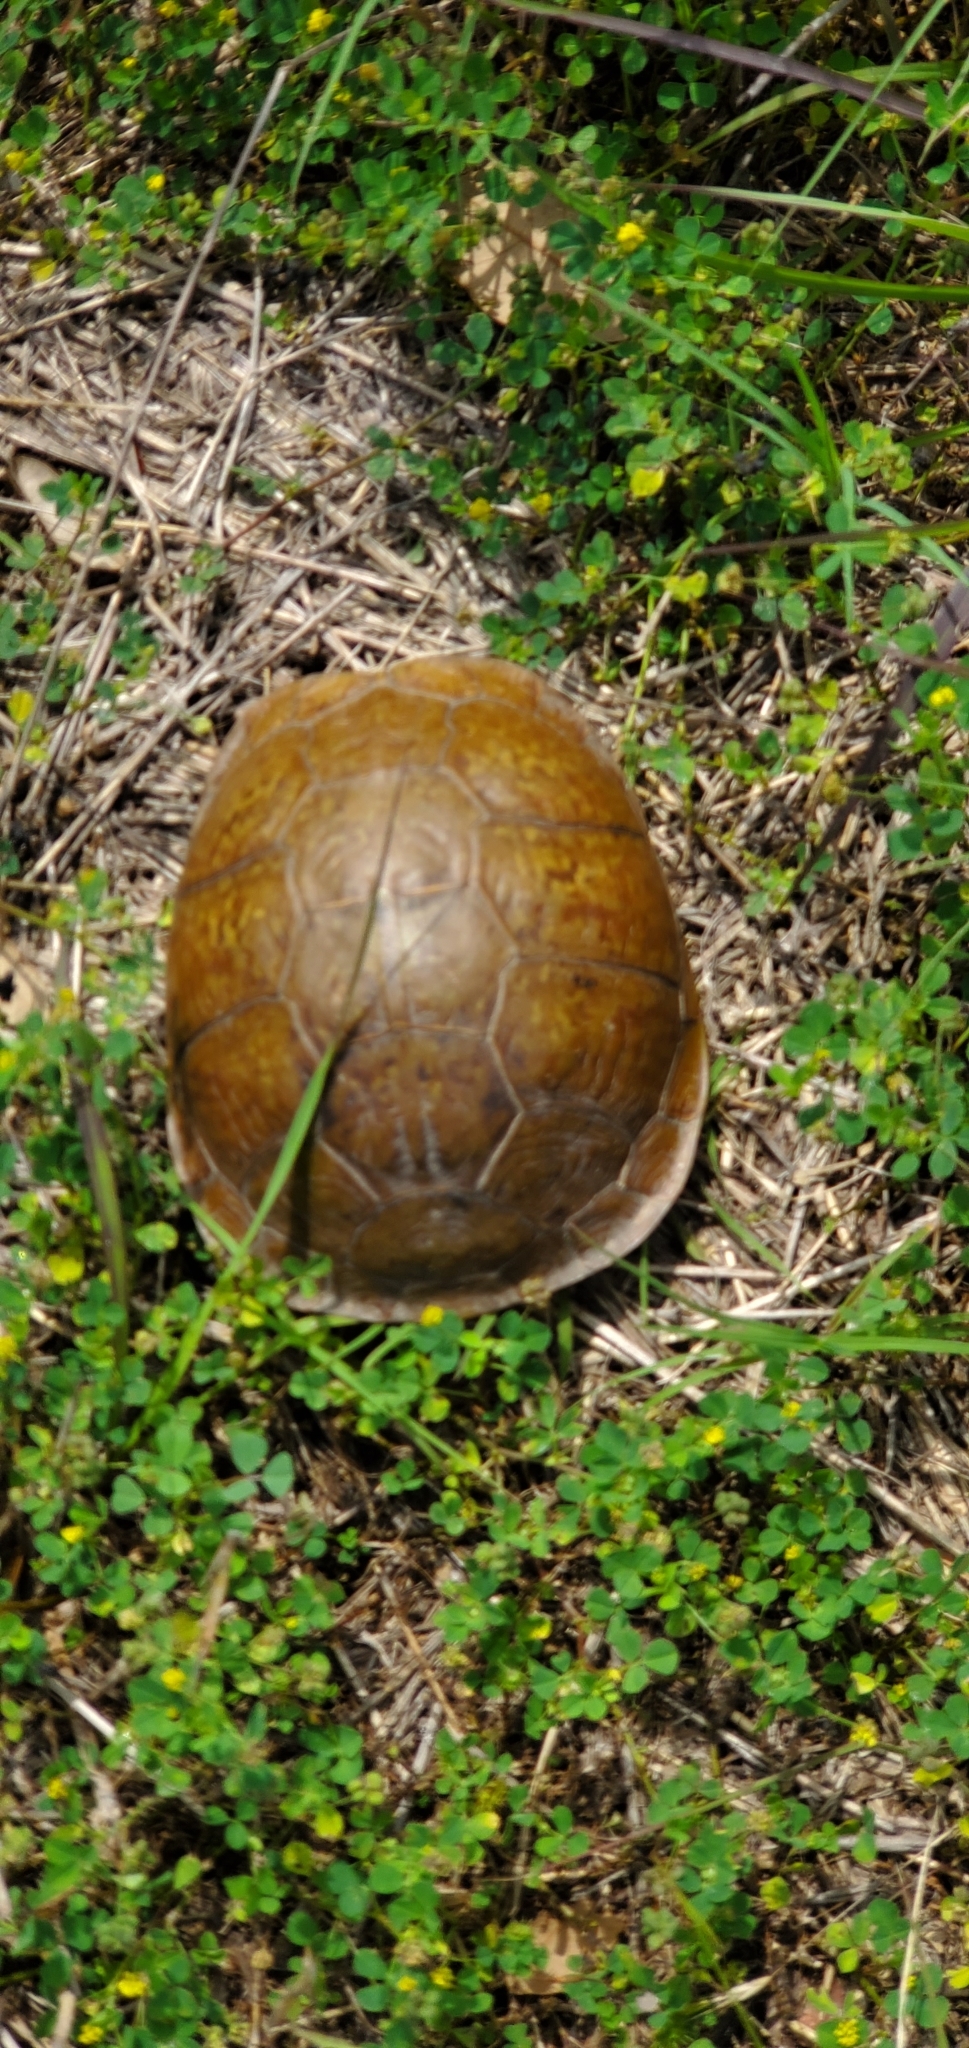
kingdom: Animalia
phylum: Chordata
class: Testudines
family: Emydidae
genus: Terrapene
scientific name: Terrapene carolina
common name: Common box turtle
